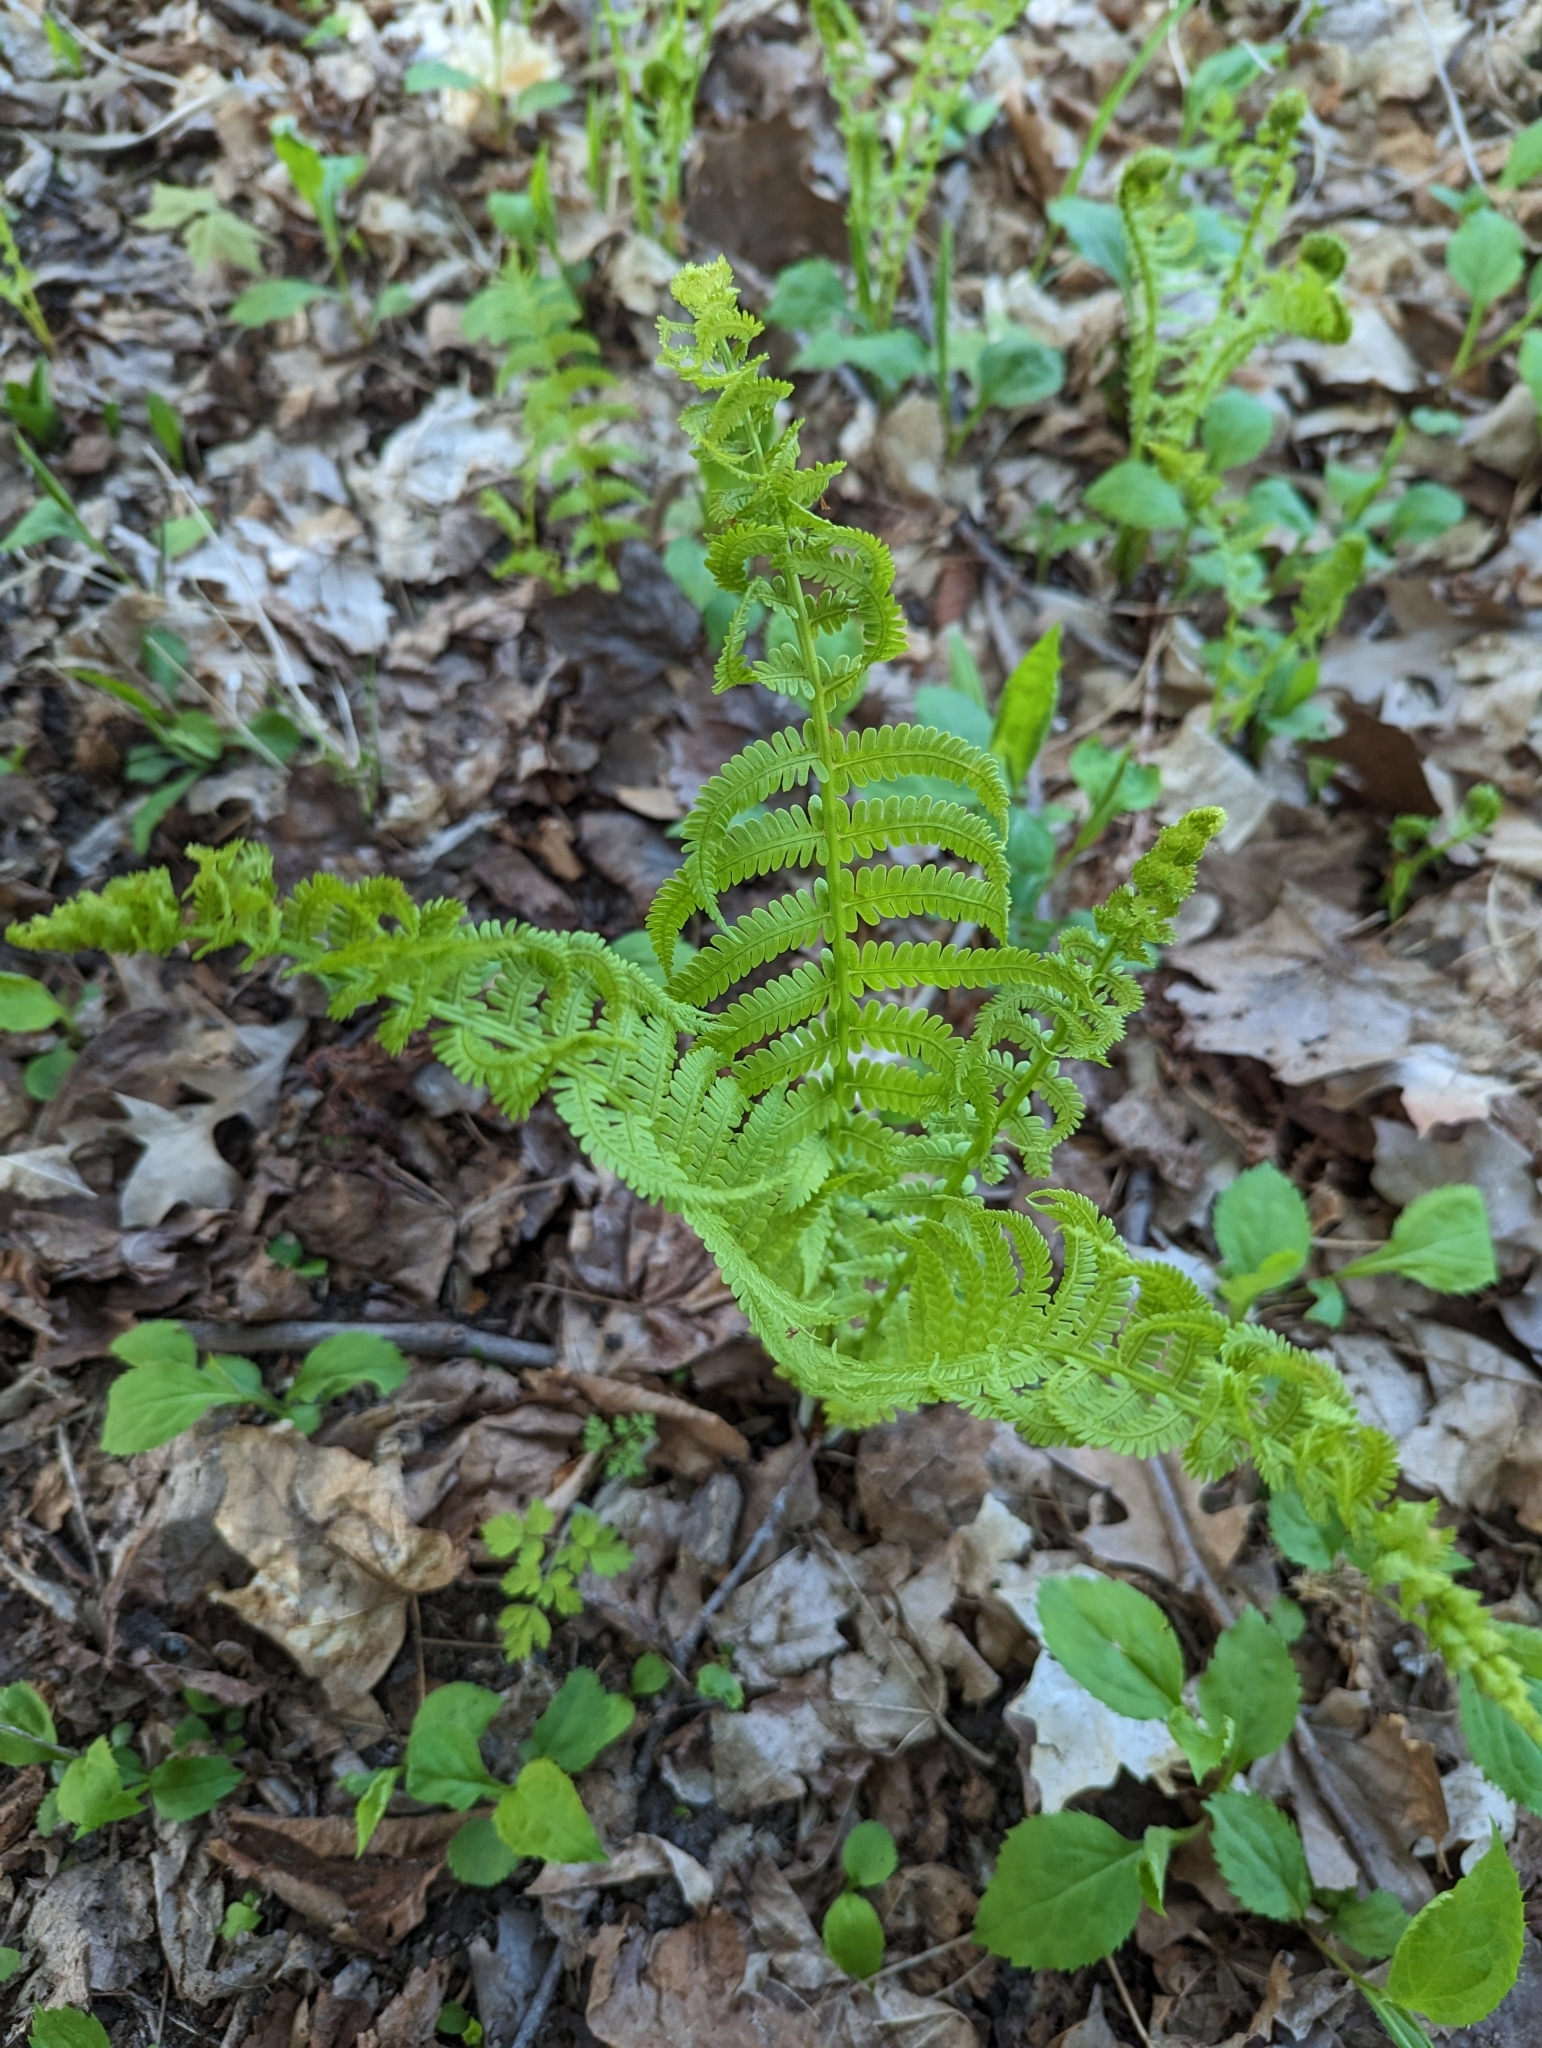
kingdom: Plantae
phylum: Tracheophyta
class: Polypodiopsida
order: Polypodiales
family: Onocleaceae
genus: Matteuccia
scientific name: Matteuccia struthiopteris
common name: Ostrich fern
